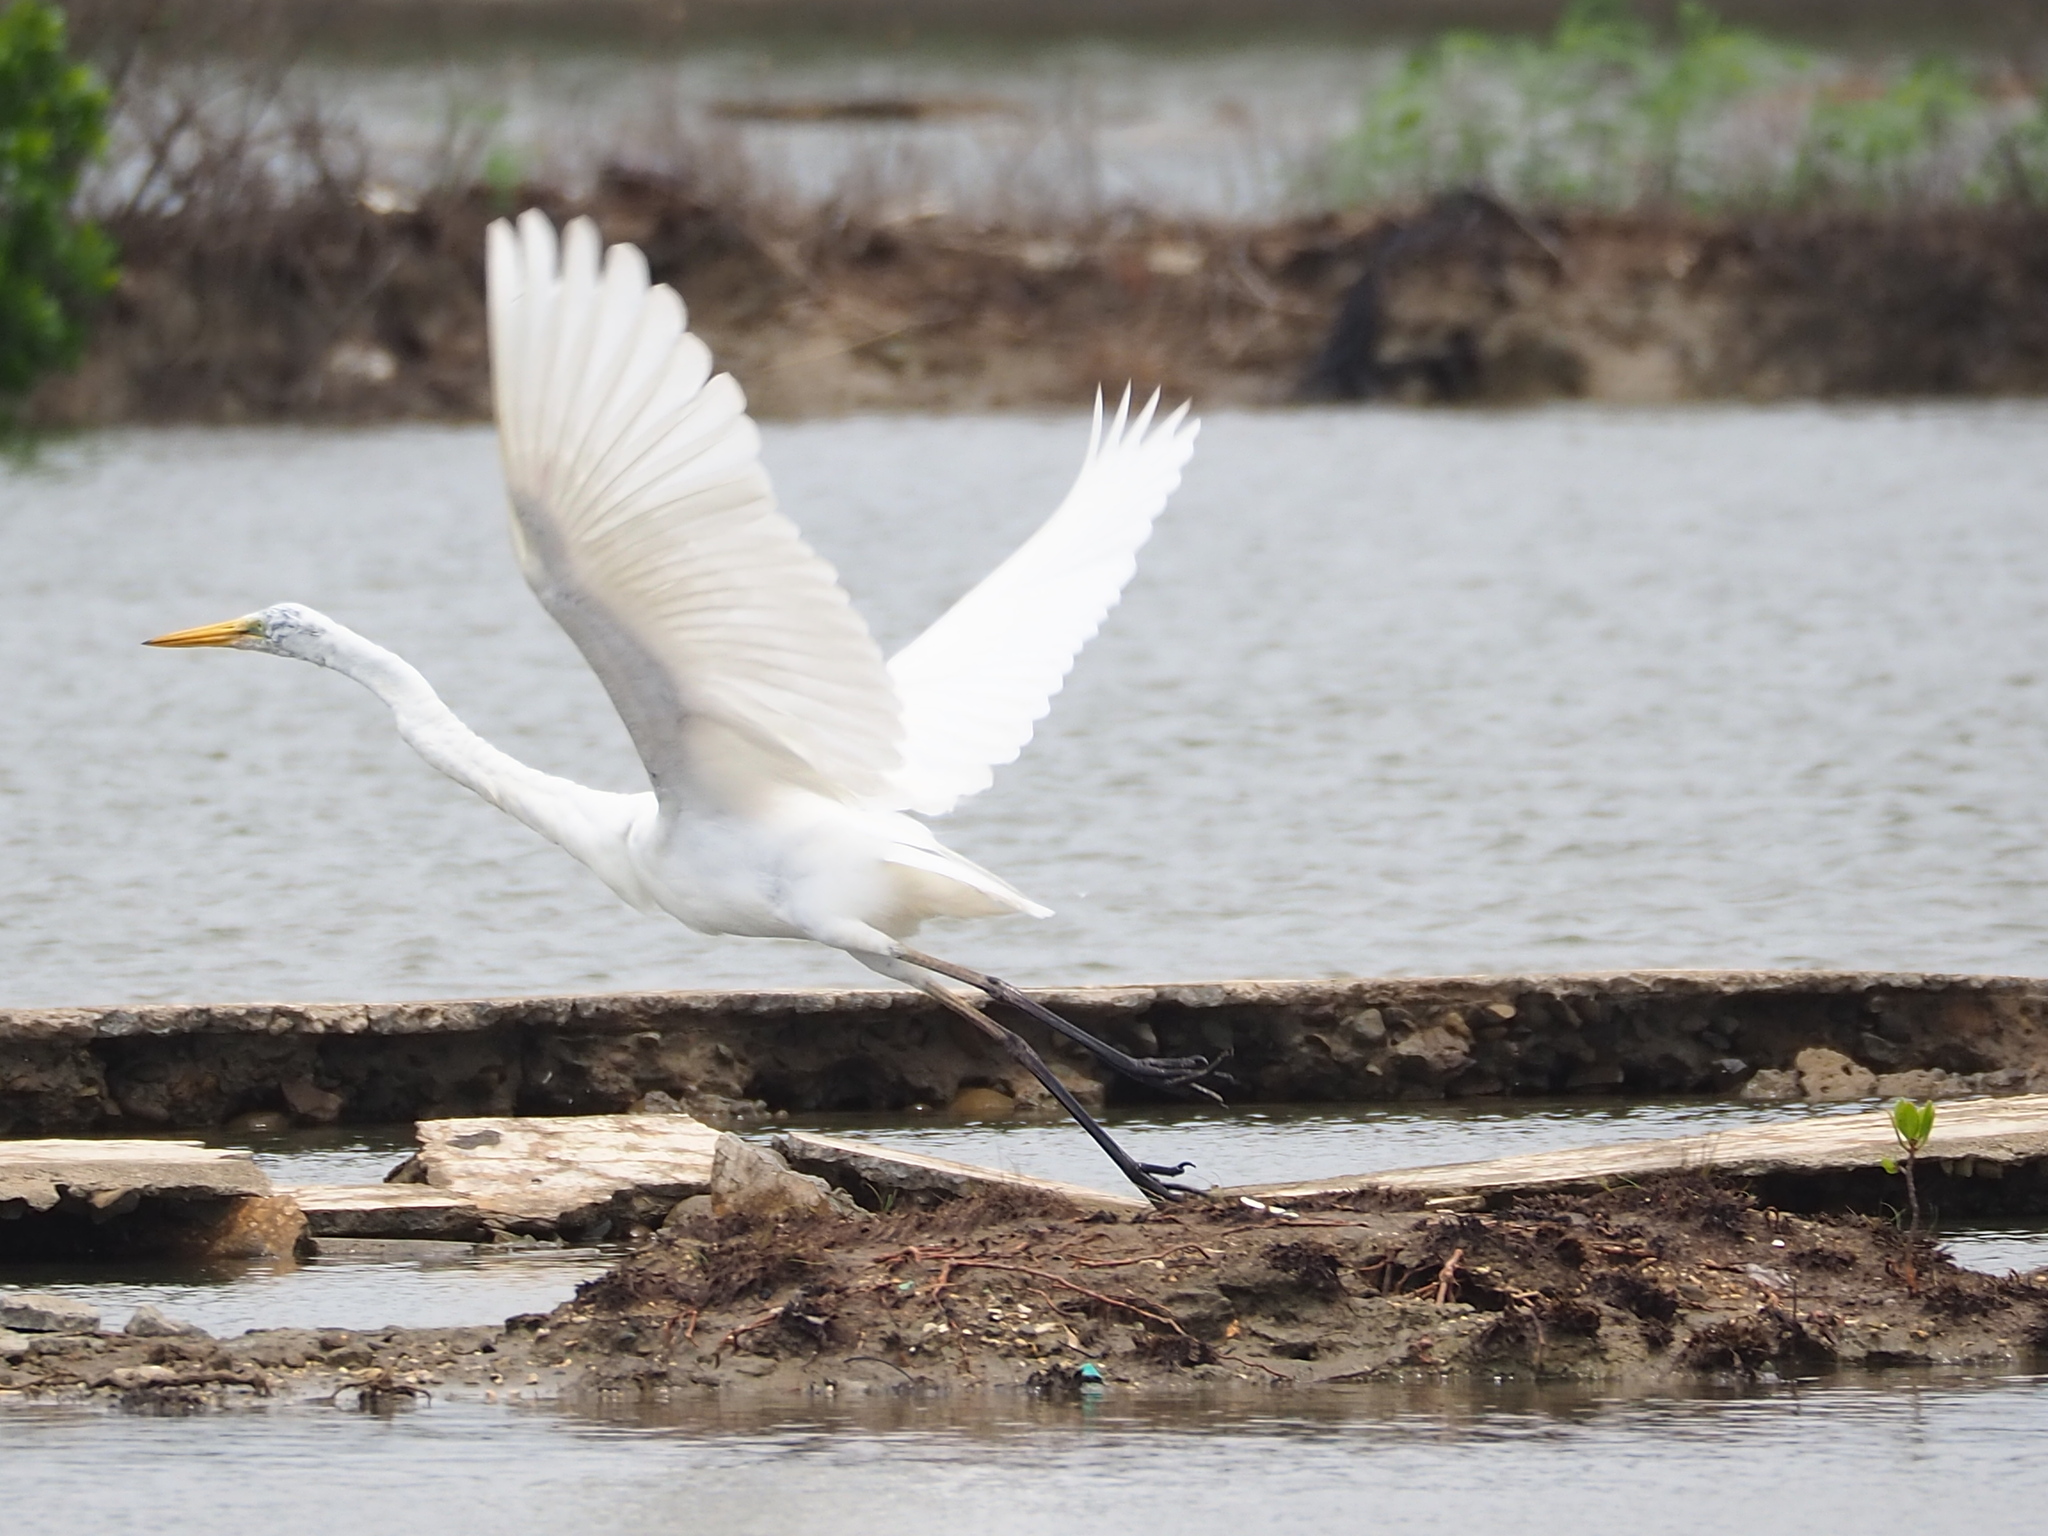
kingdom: Animalia
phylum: Chordata
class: Aves
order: Pelecaniformes
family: Ardeidae
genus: Ardea
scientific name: Ardea alba
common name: Great egret
